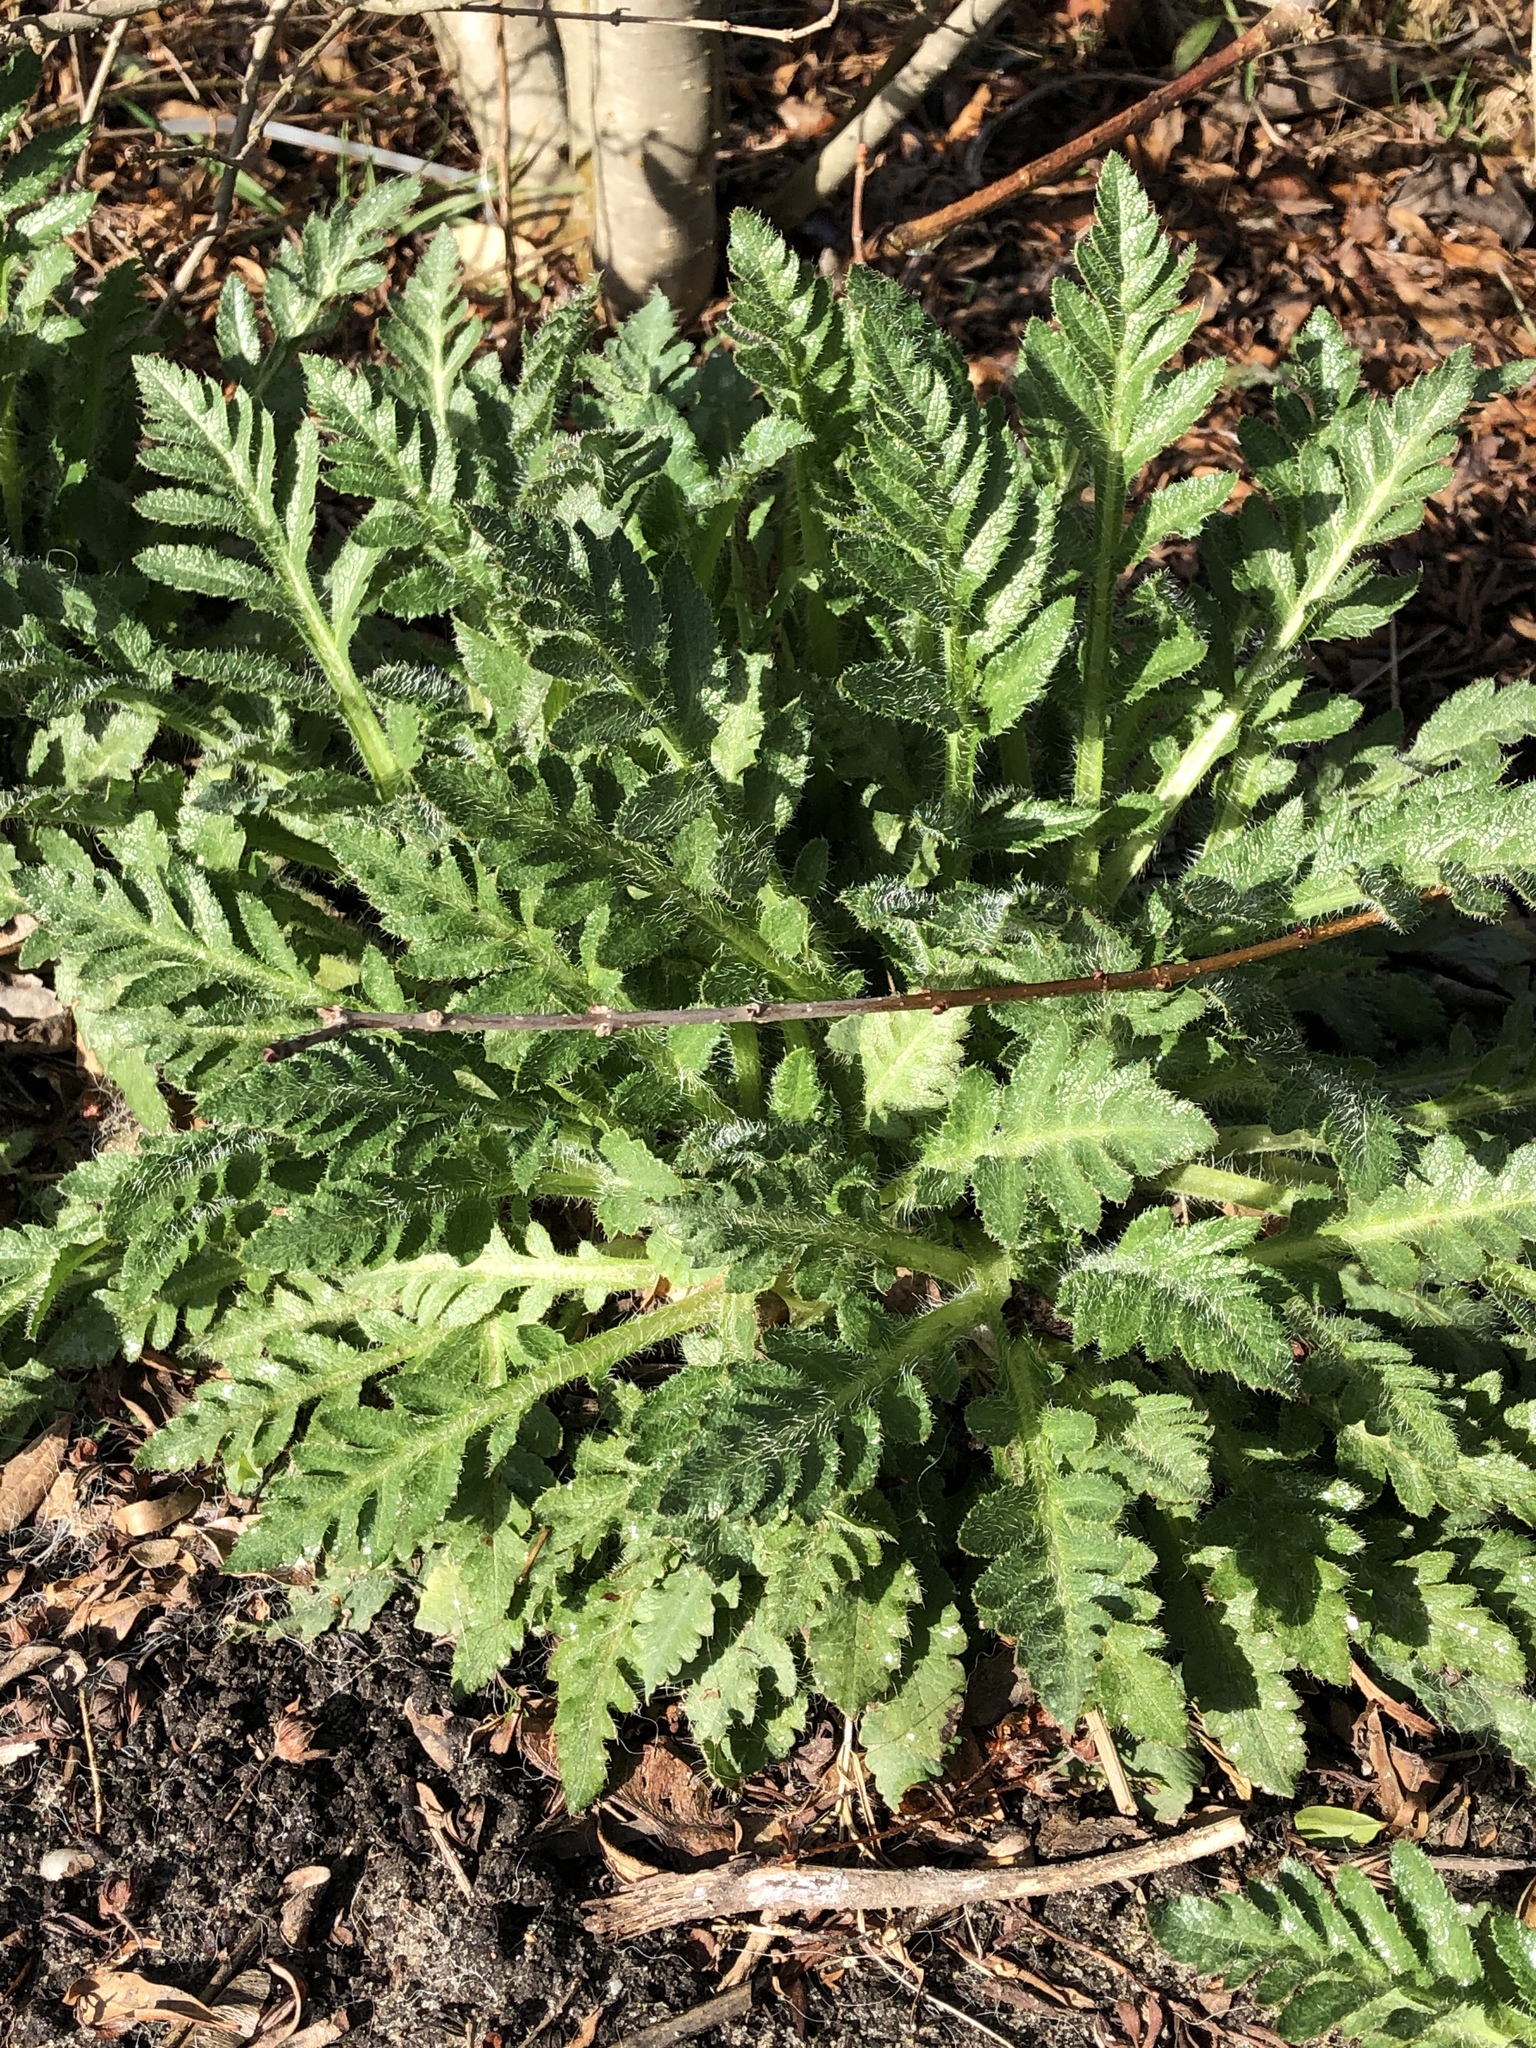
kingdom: Plantae
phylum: Tracheophyta
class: Magnoliopsida
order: Asterales
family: Asteraceae
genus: Tanacetum
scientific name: Tanacetum vulgare
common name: Common tansy
